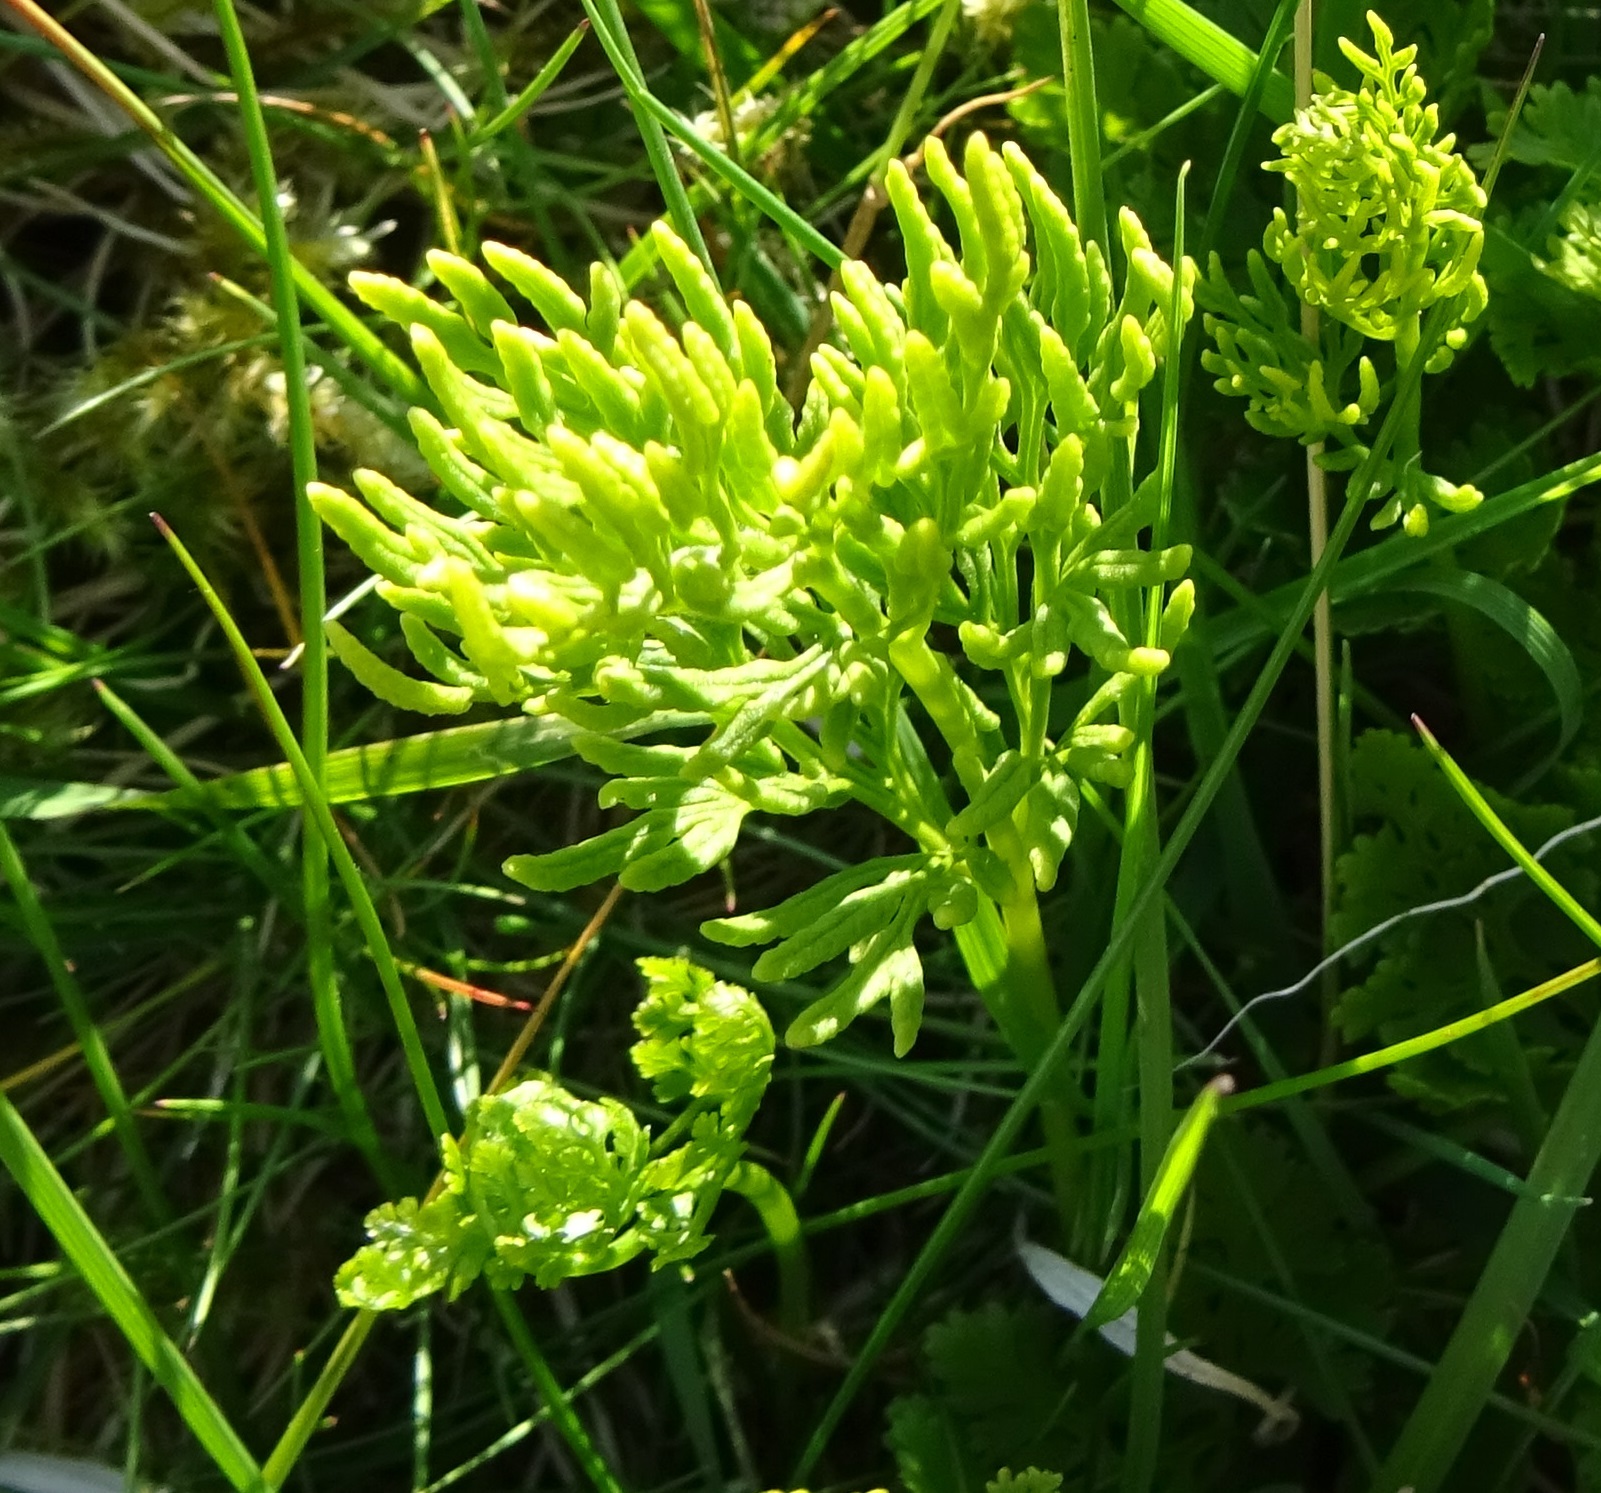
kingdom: Plantae
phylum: Tracheophyta
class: Polypodiopsida
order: Polypodiales
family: Pteridaceae
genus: Cryptogramma
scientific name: Cryptogramma crispa
